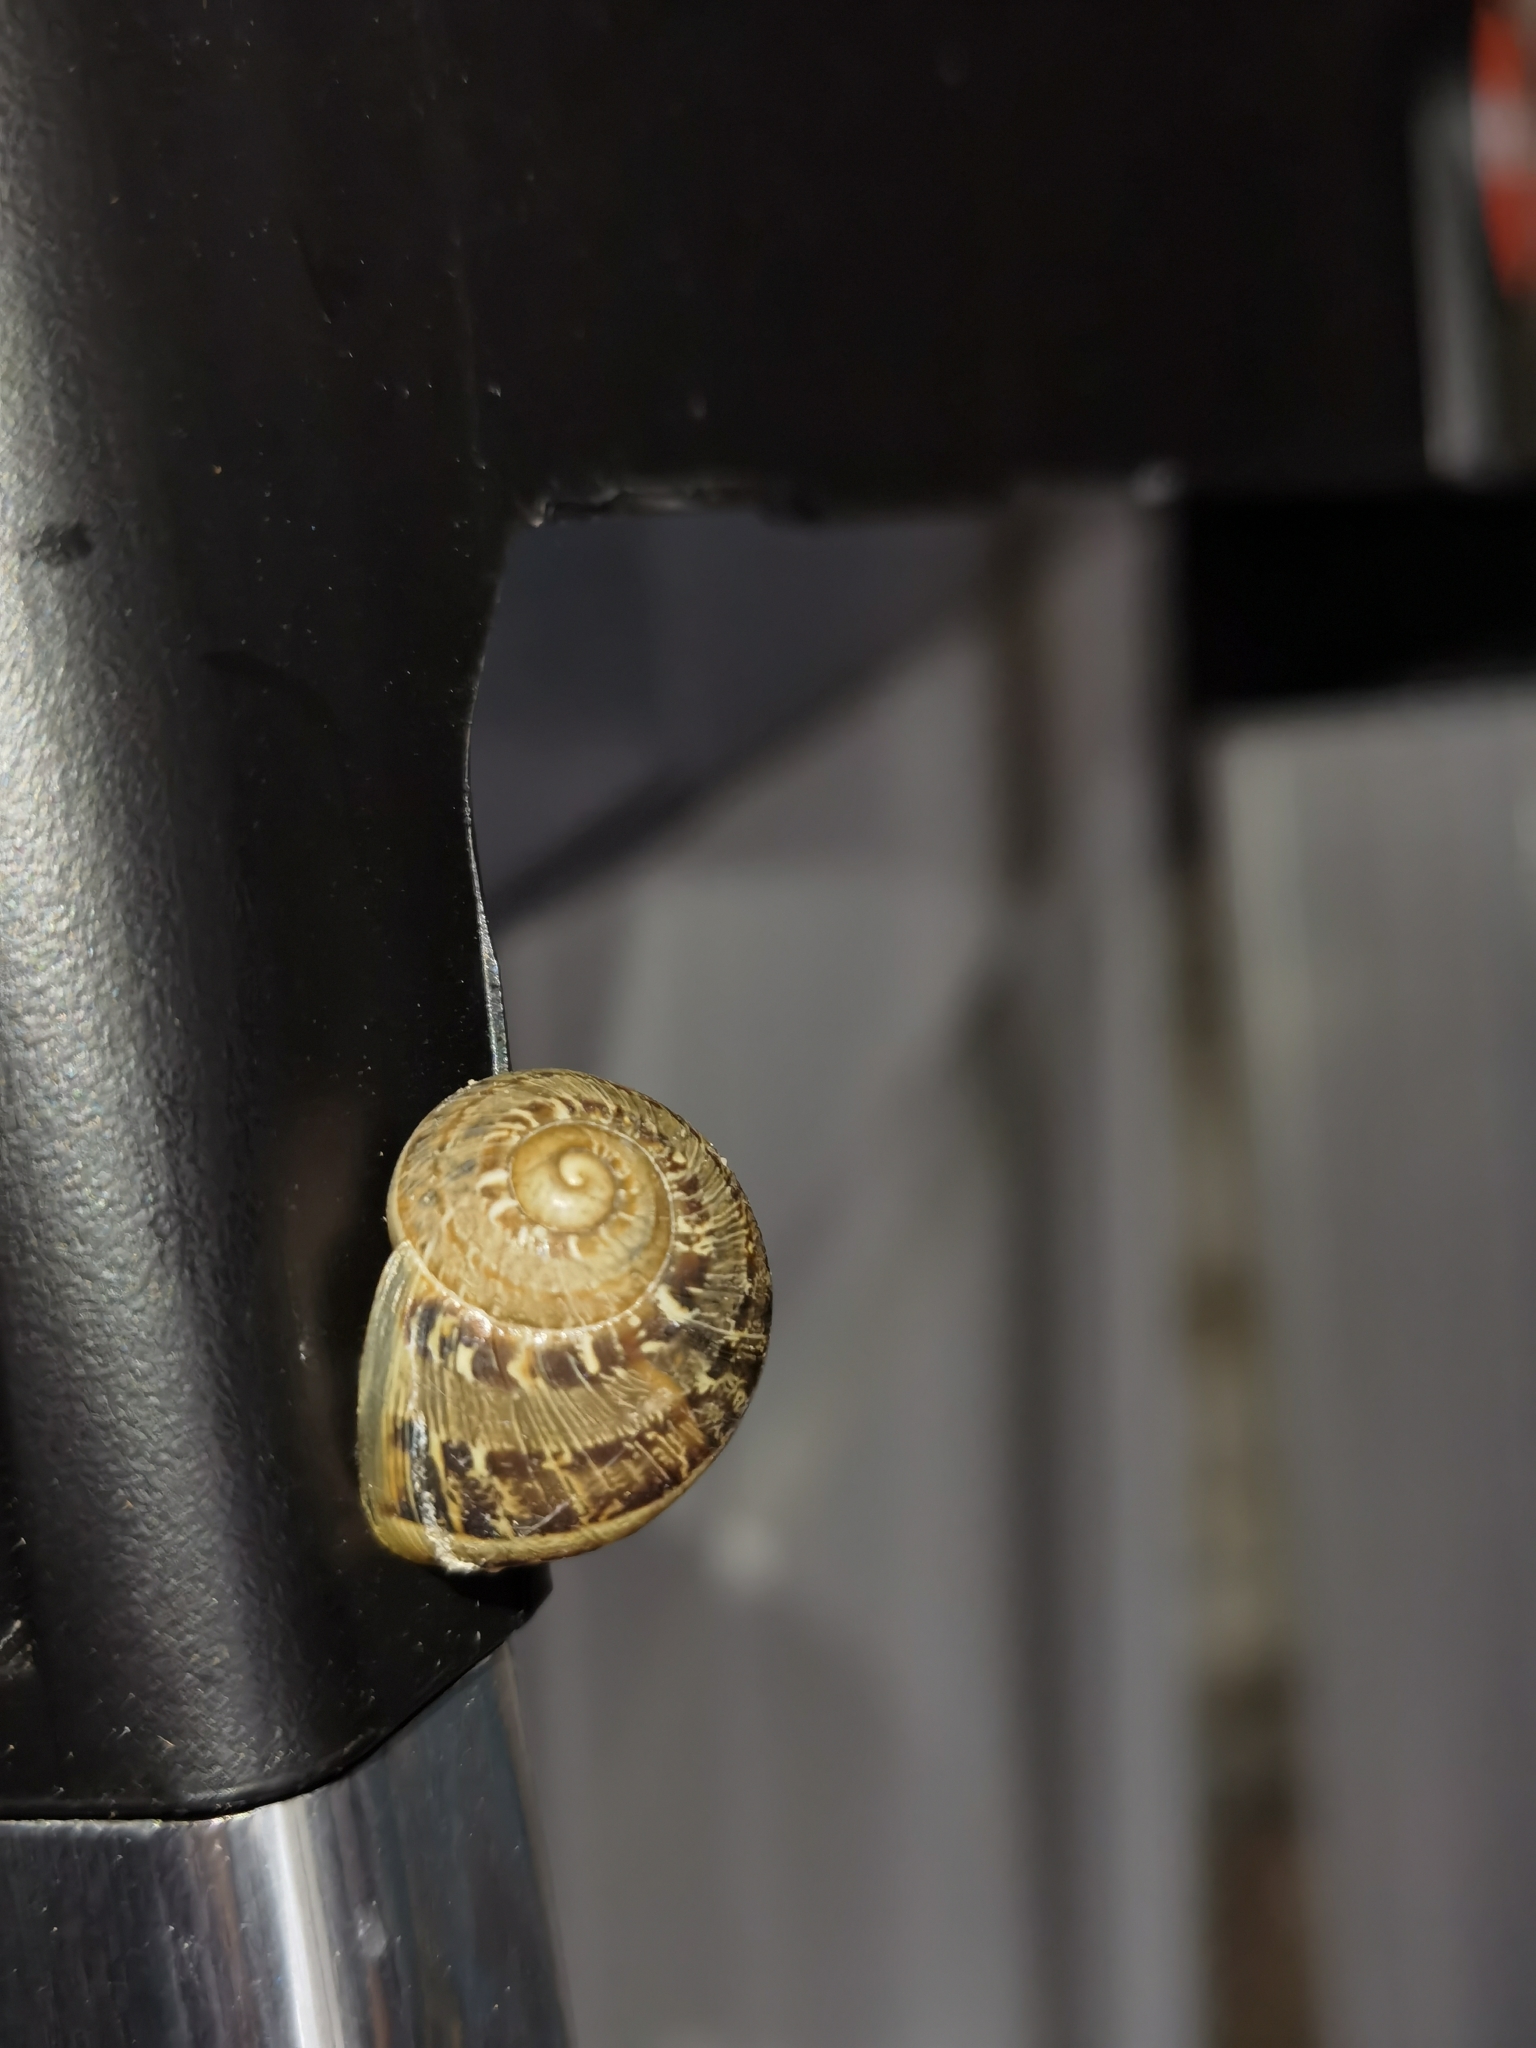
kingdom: Animalia
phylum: Mollusca
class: Gastropoda
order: Stylommatophora
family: Helicidae
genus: Cornu
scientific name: Cornu aspersum
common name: Brown garden snail
